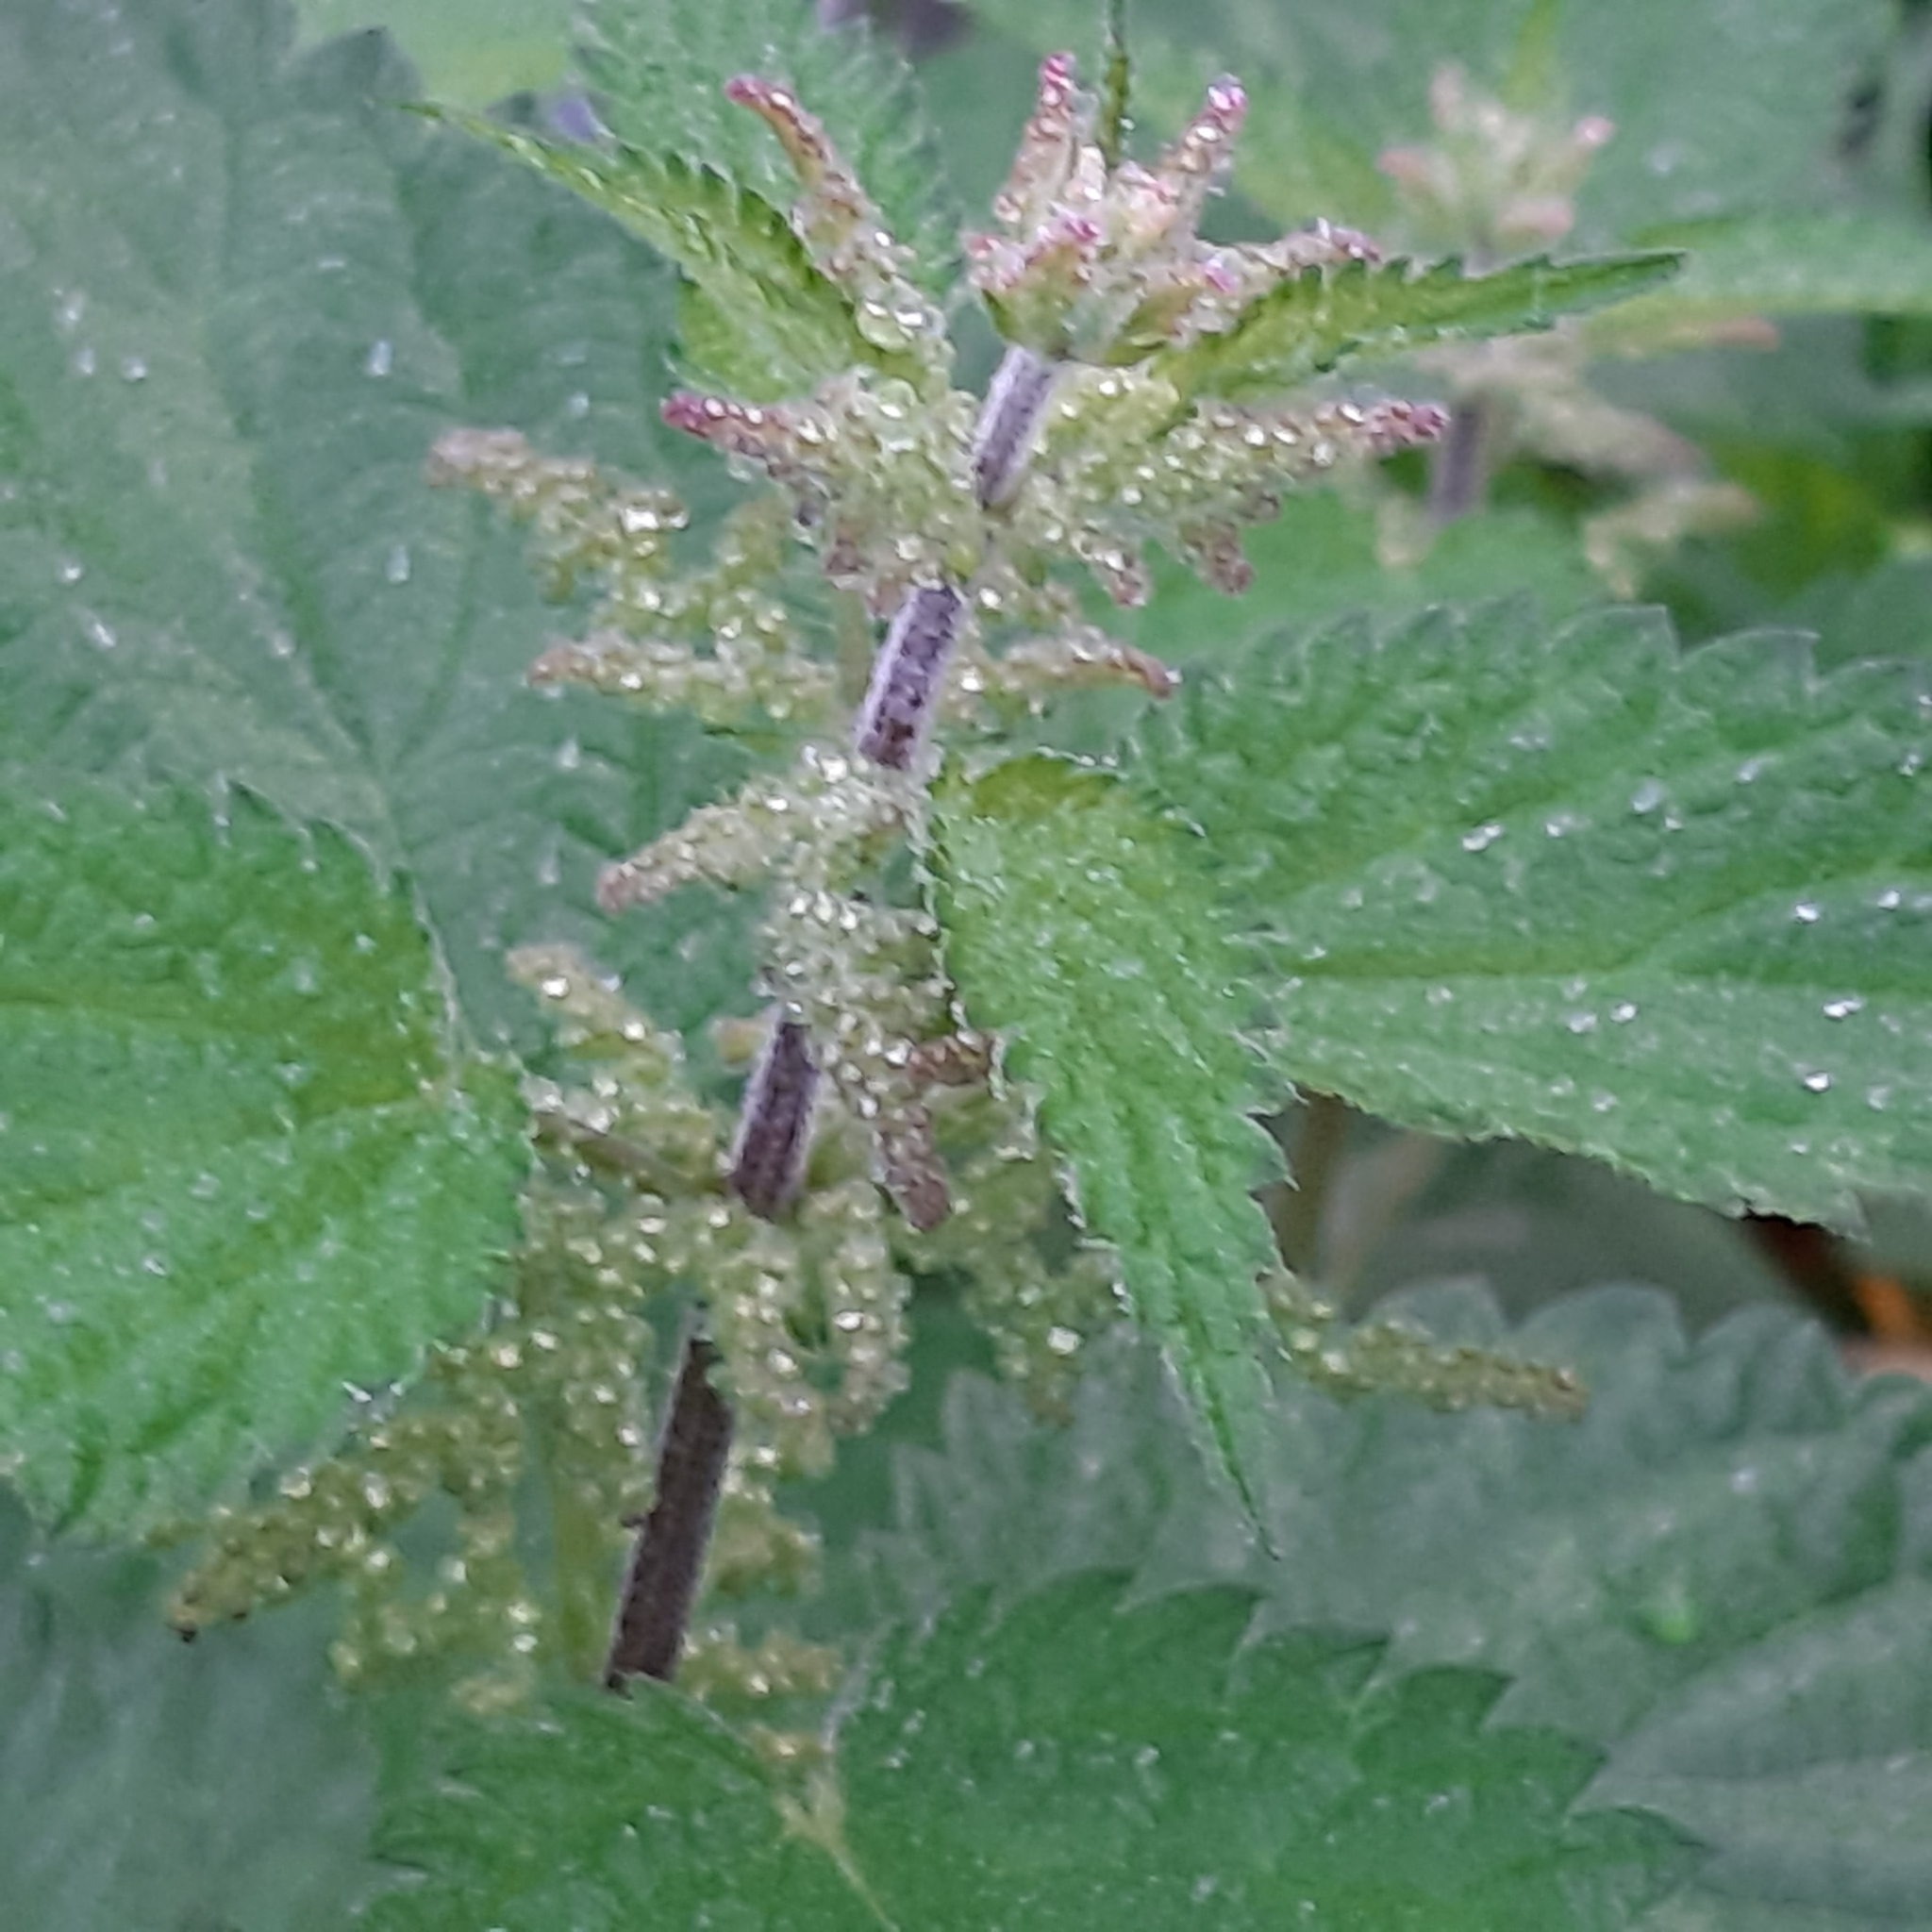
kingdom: Plantae
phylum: Tracheophyta
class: Magnoliopsida
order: Rosales
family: Urticaceae
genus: Urtica
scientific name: Urtica dioica
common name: Common nettle
